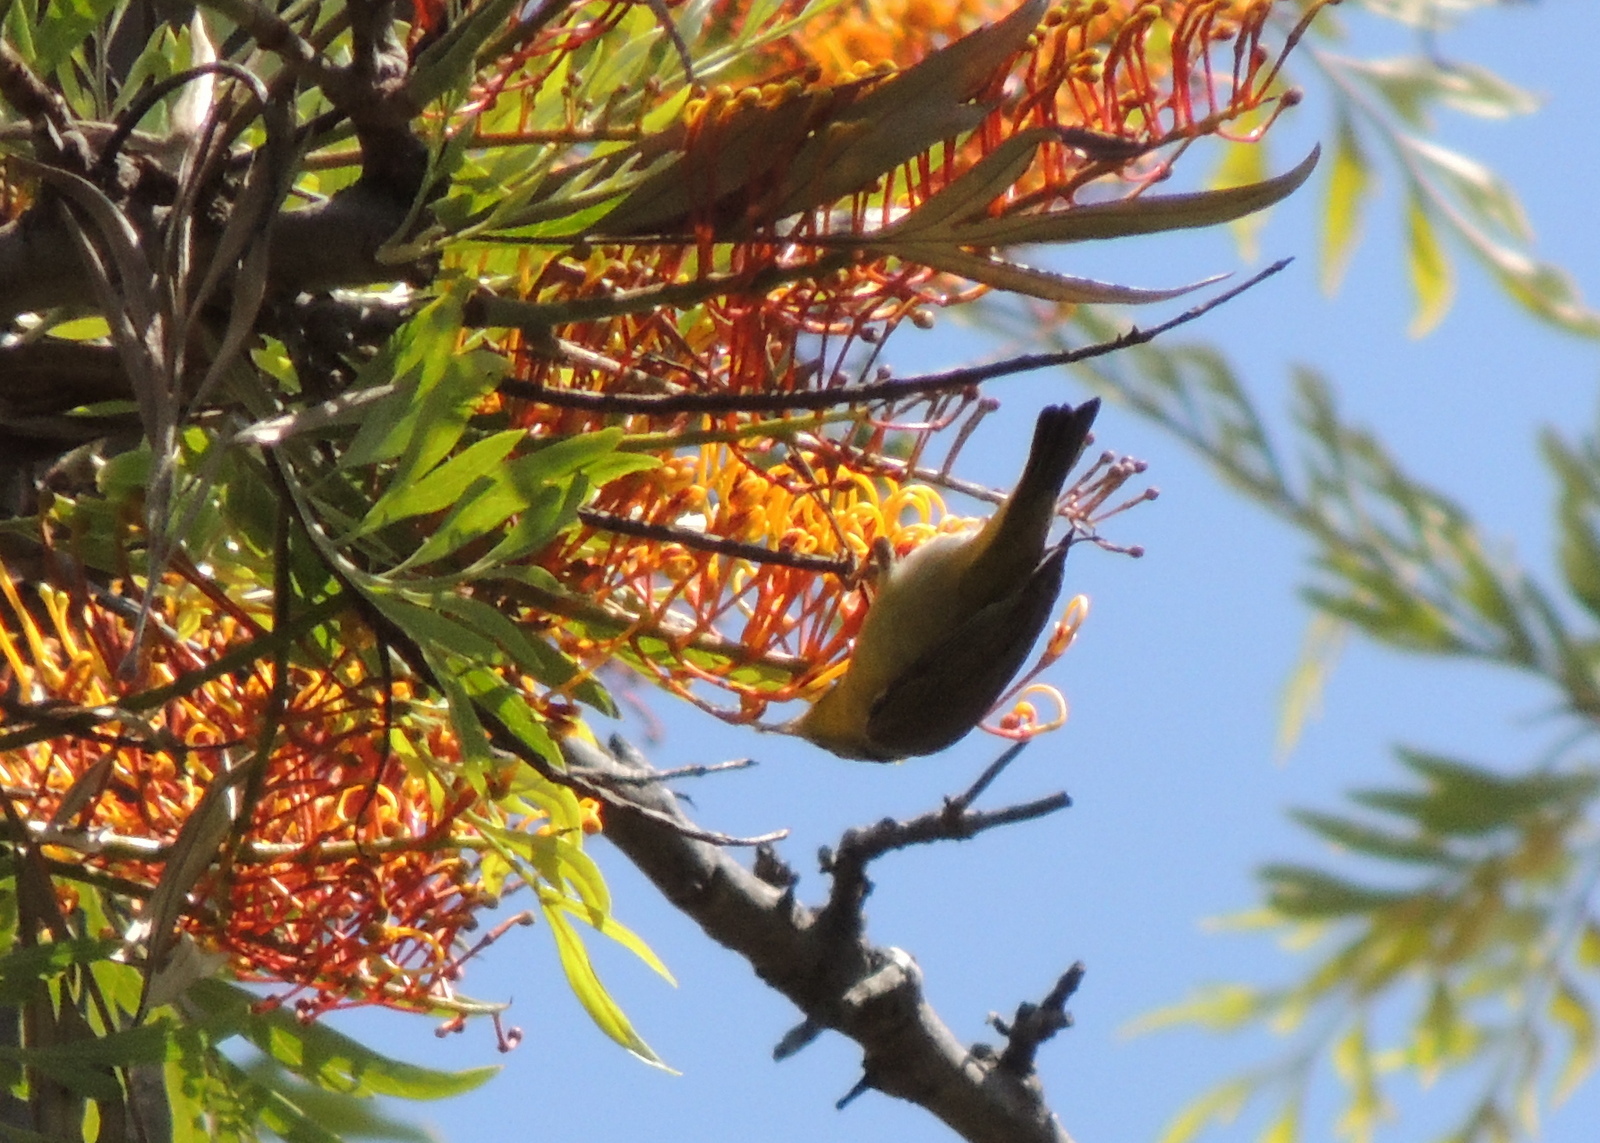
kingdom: Animalia
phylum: Chordata
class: Aves
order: Passeriformes
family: Parulidae
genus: Leiothlypis
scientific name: Leiothlypis ruficapilla
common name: Nashville warbler
